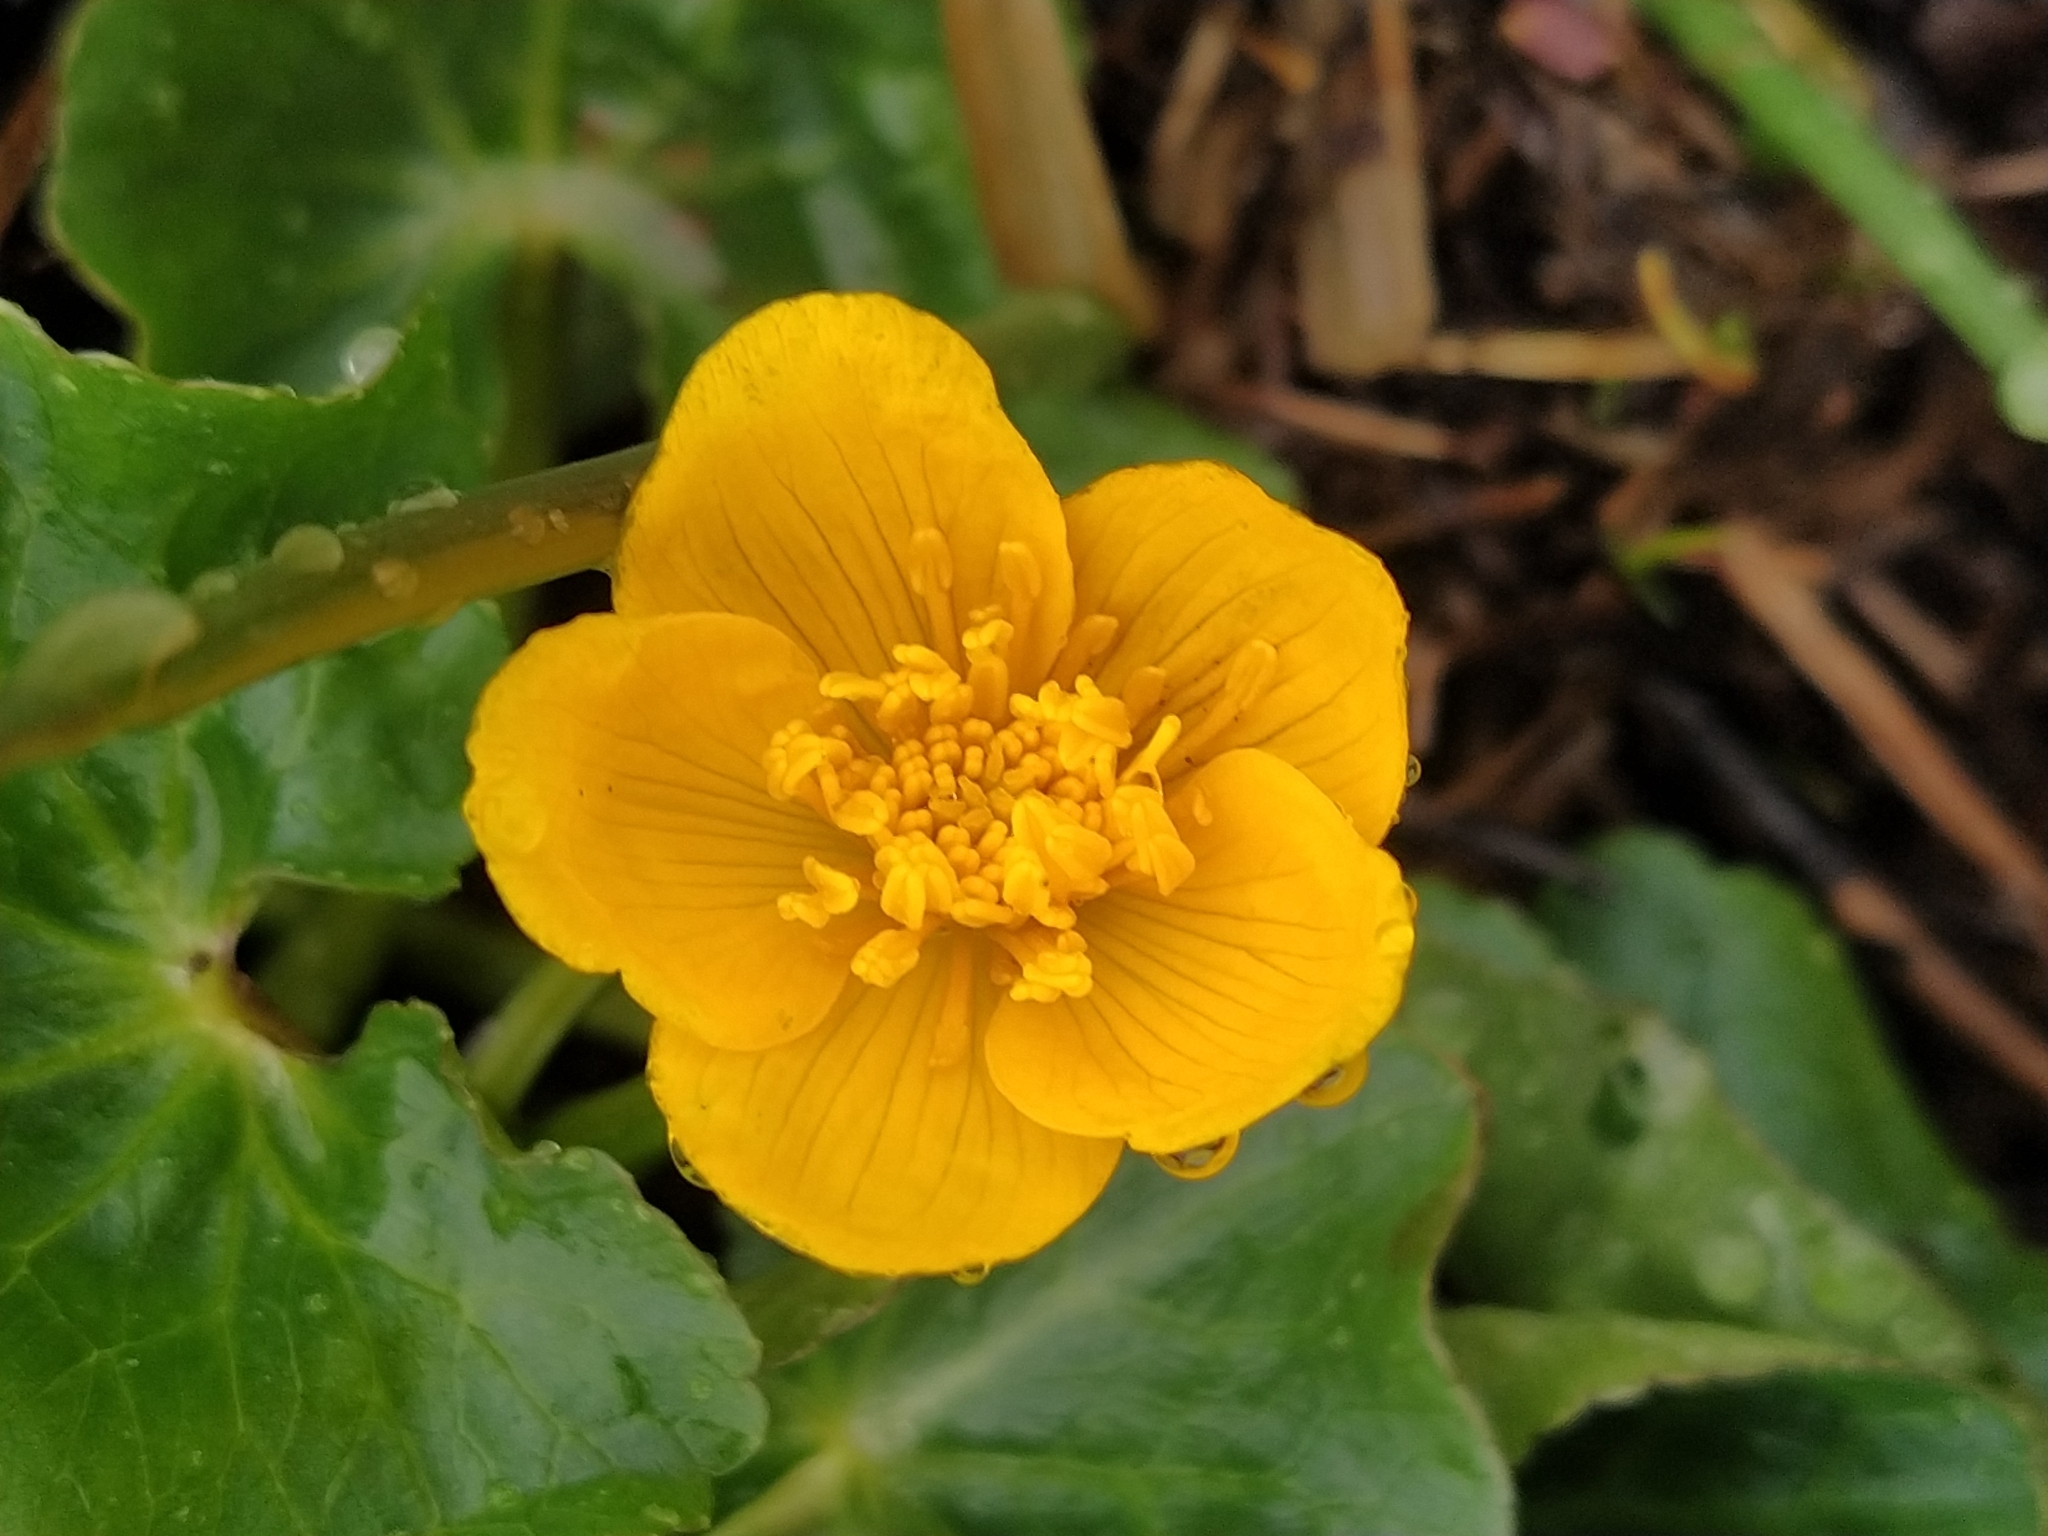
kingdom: Plantae
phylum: Tracheophyta
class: Magnoliopsida
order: Ranunculales
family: Ranunculaceae
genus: Caltha
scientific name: Caltha palustris
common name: Marsh marigold
